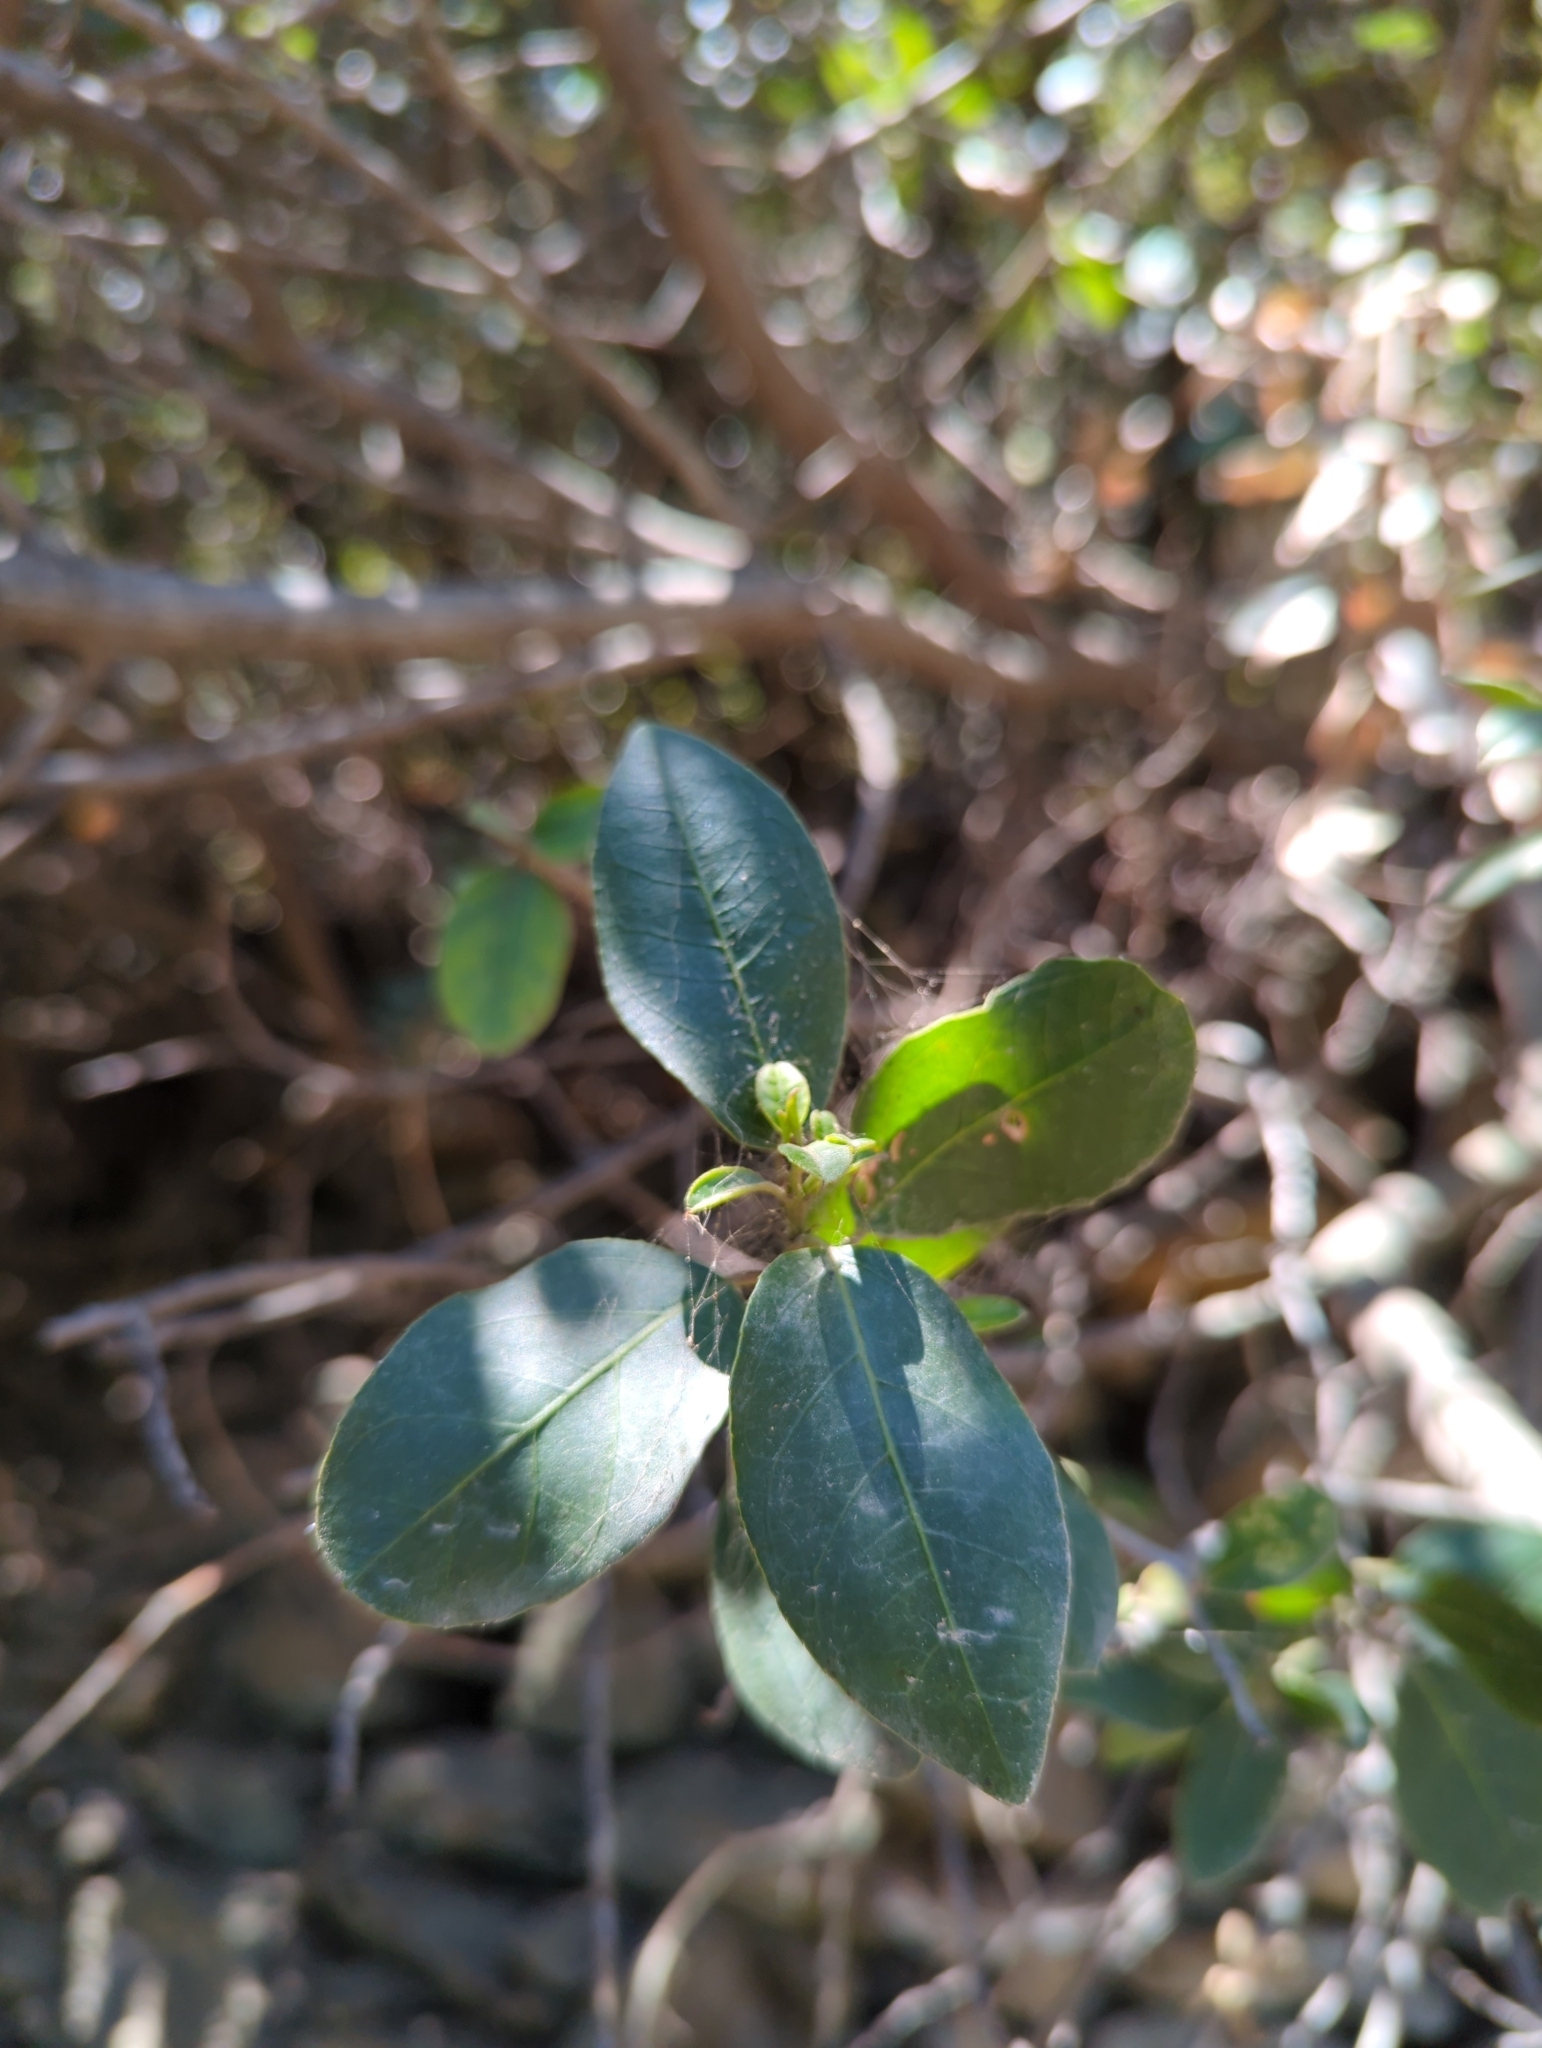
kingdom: Plantae
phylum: Tracheophyta
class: Magnoliopsida
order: Dipsacales
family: Viburnaceae
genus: Viburnum
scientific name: Viburnum tinus
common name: Laurustinus
